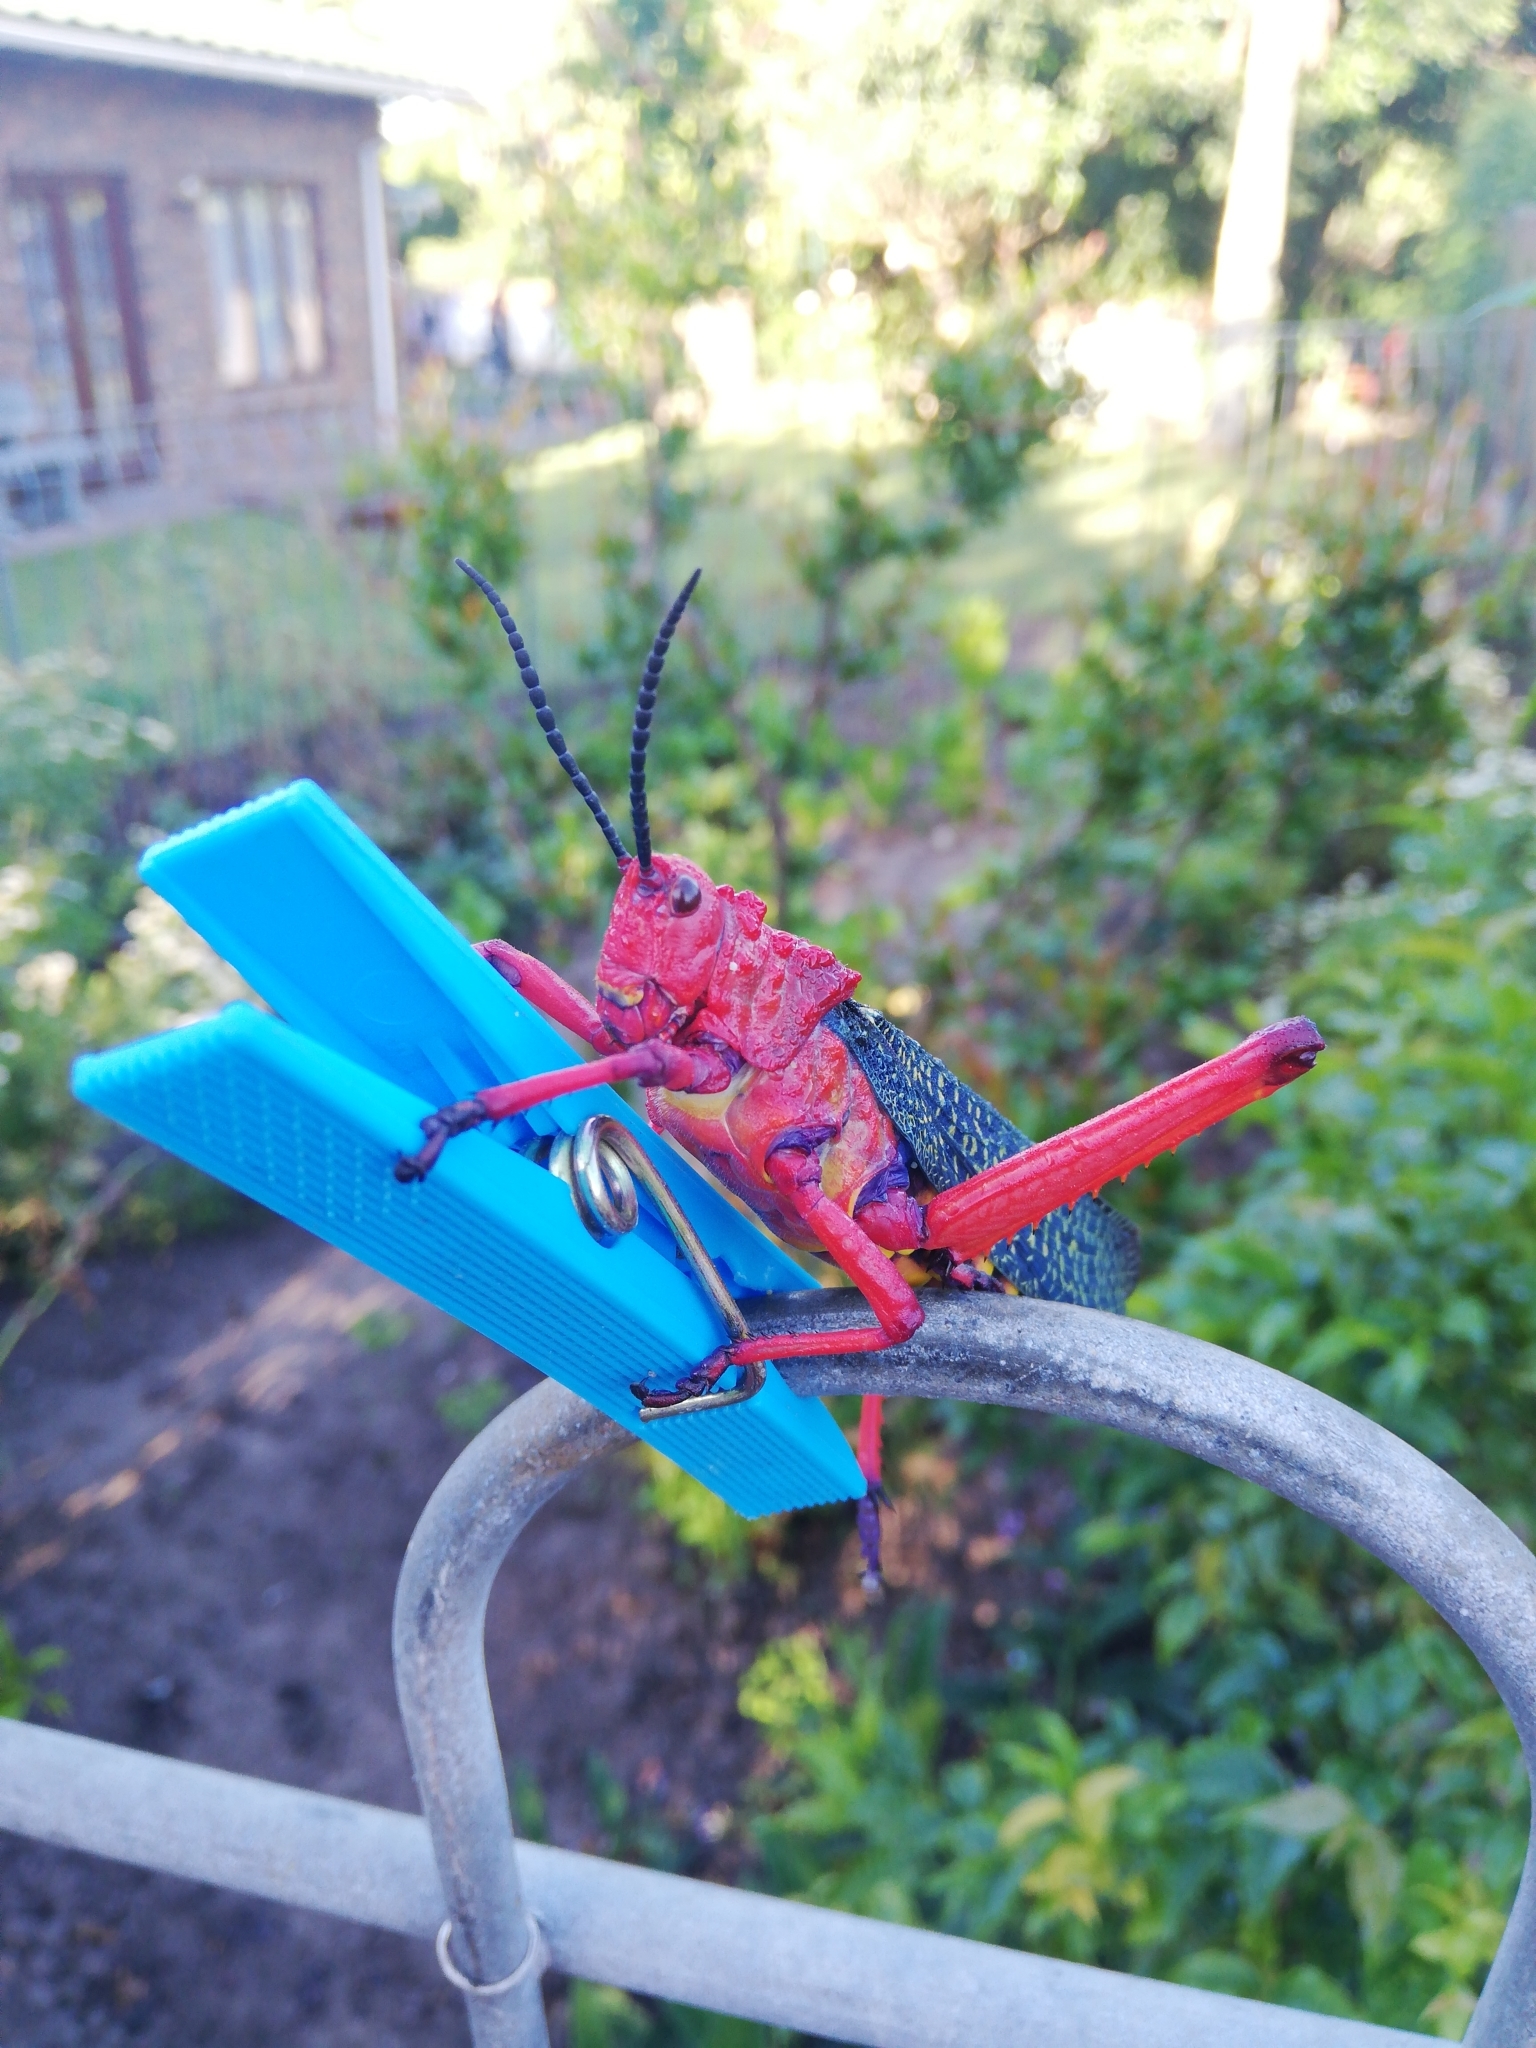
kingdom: Animalia
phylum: Arthropoda
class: Insecta
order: Orthoptera
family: Pyrgomorphidae
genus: Phymateus
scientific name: Phymateus morbillosus
